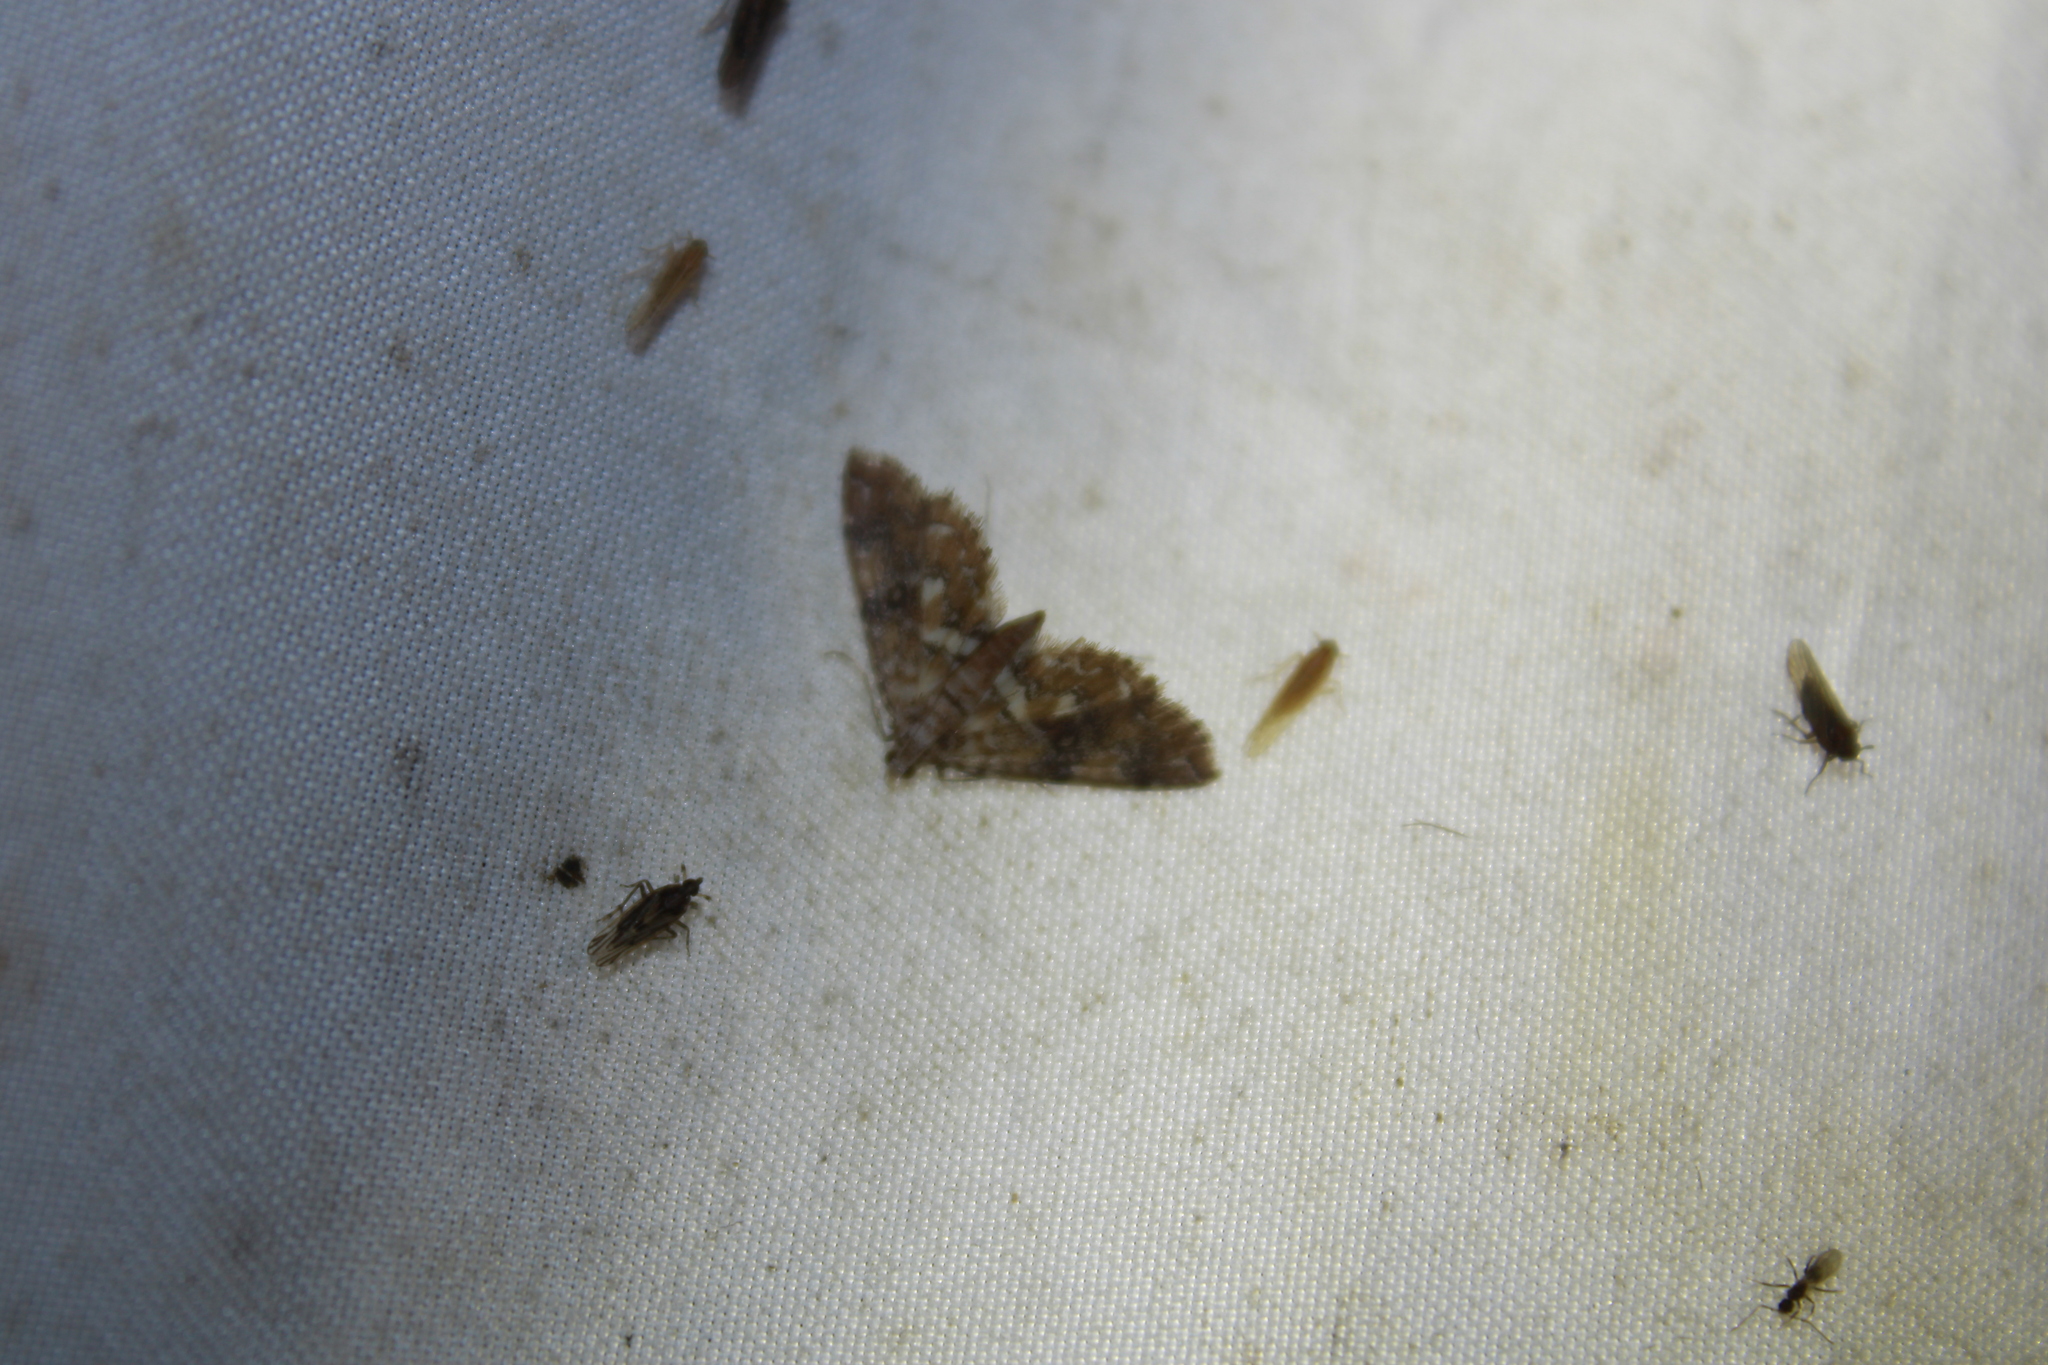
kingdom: Animalia
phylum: Arthropoda
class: Insecta
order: Lepidoptera
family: Crambidae
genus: Elophila
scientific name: Elophila obliteralis
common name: Waterlily leafcutter moth
